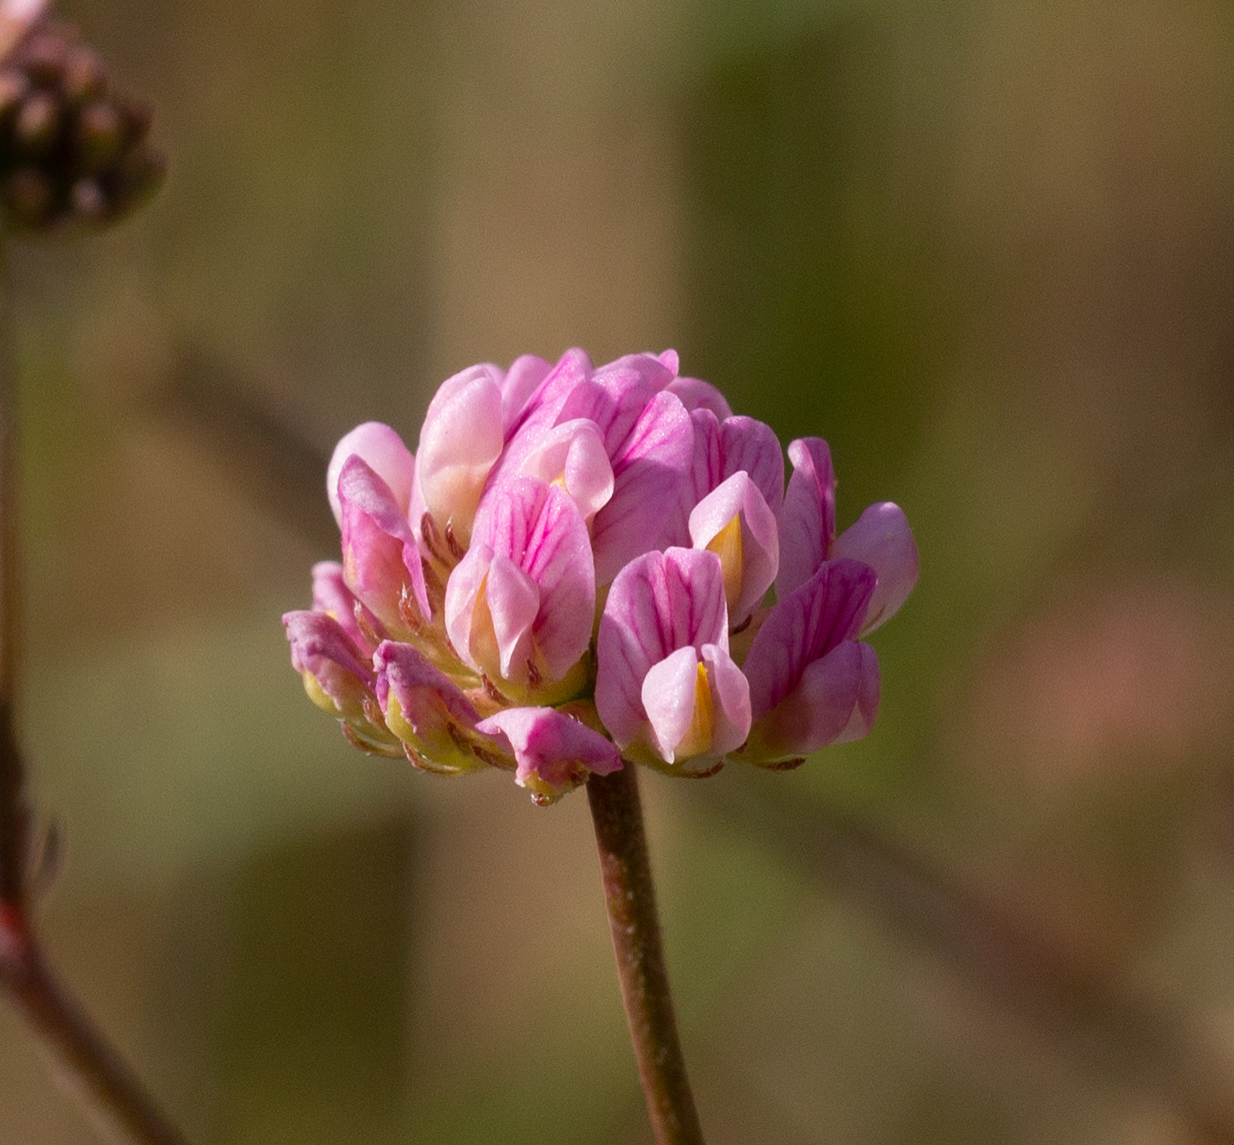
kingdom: Plantae
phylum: Tracheophyta
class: Magnoliopsida
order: Fabales
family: Fabaceae
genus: Dorycnopsis
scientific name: Dorycnopsis gerardi
